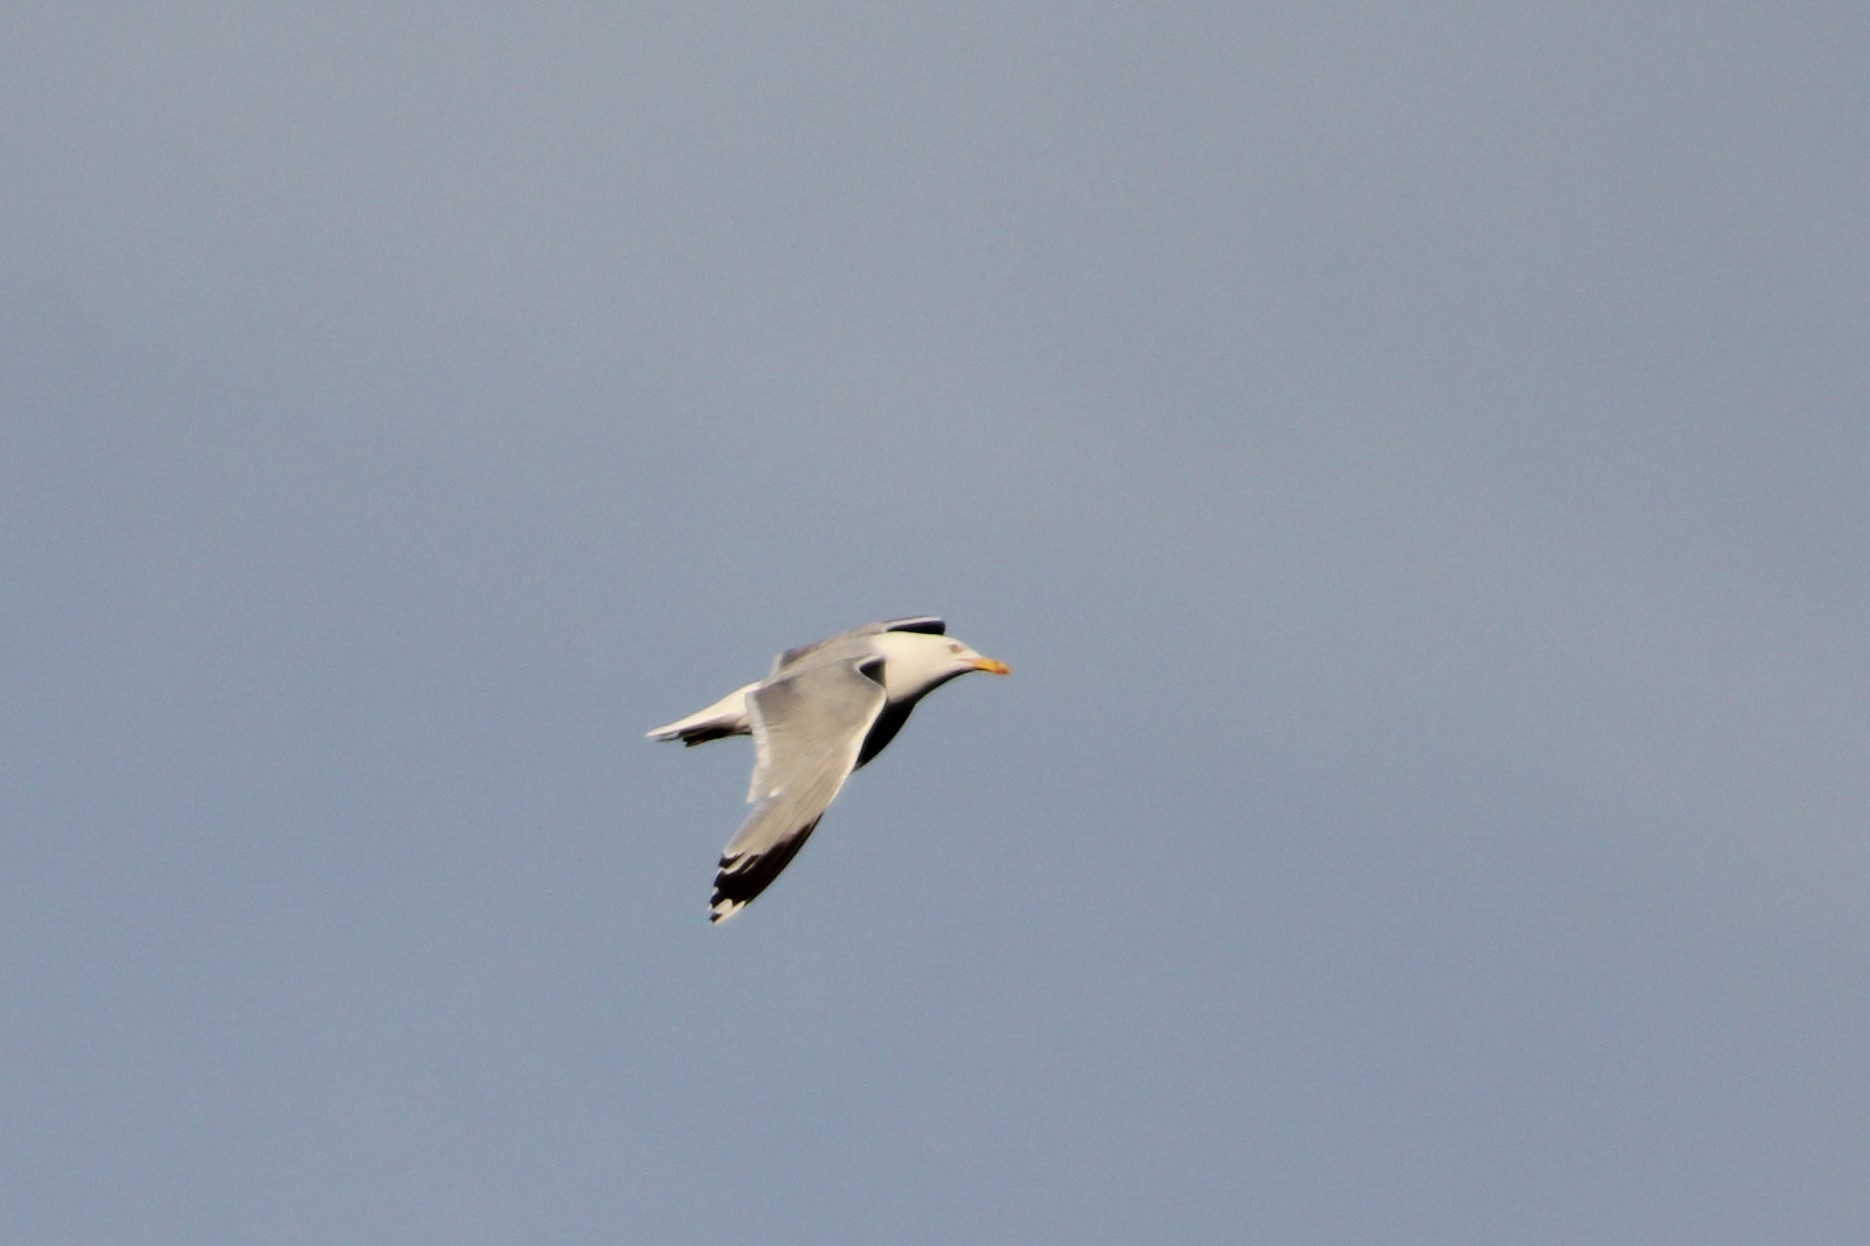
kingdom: Animalia
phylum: Chordata
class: Aves
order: Charadriiformes
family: Laridae
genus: Larus
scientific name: Larus argentatus
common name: Herring gull
